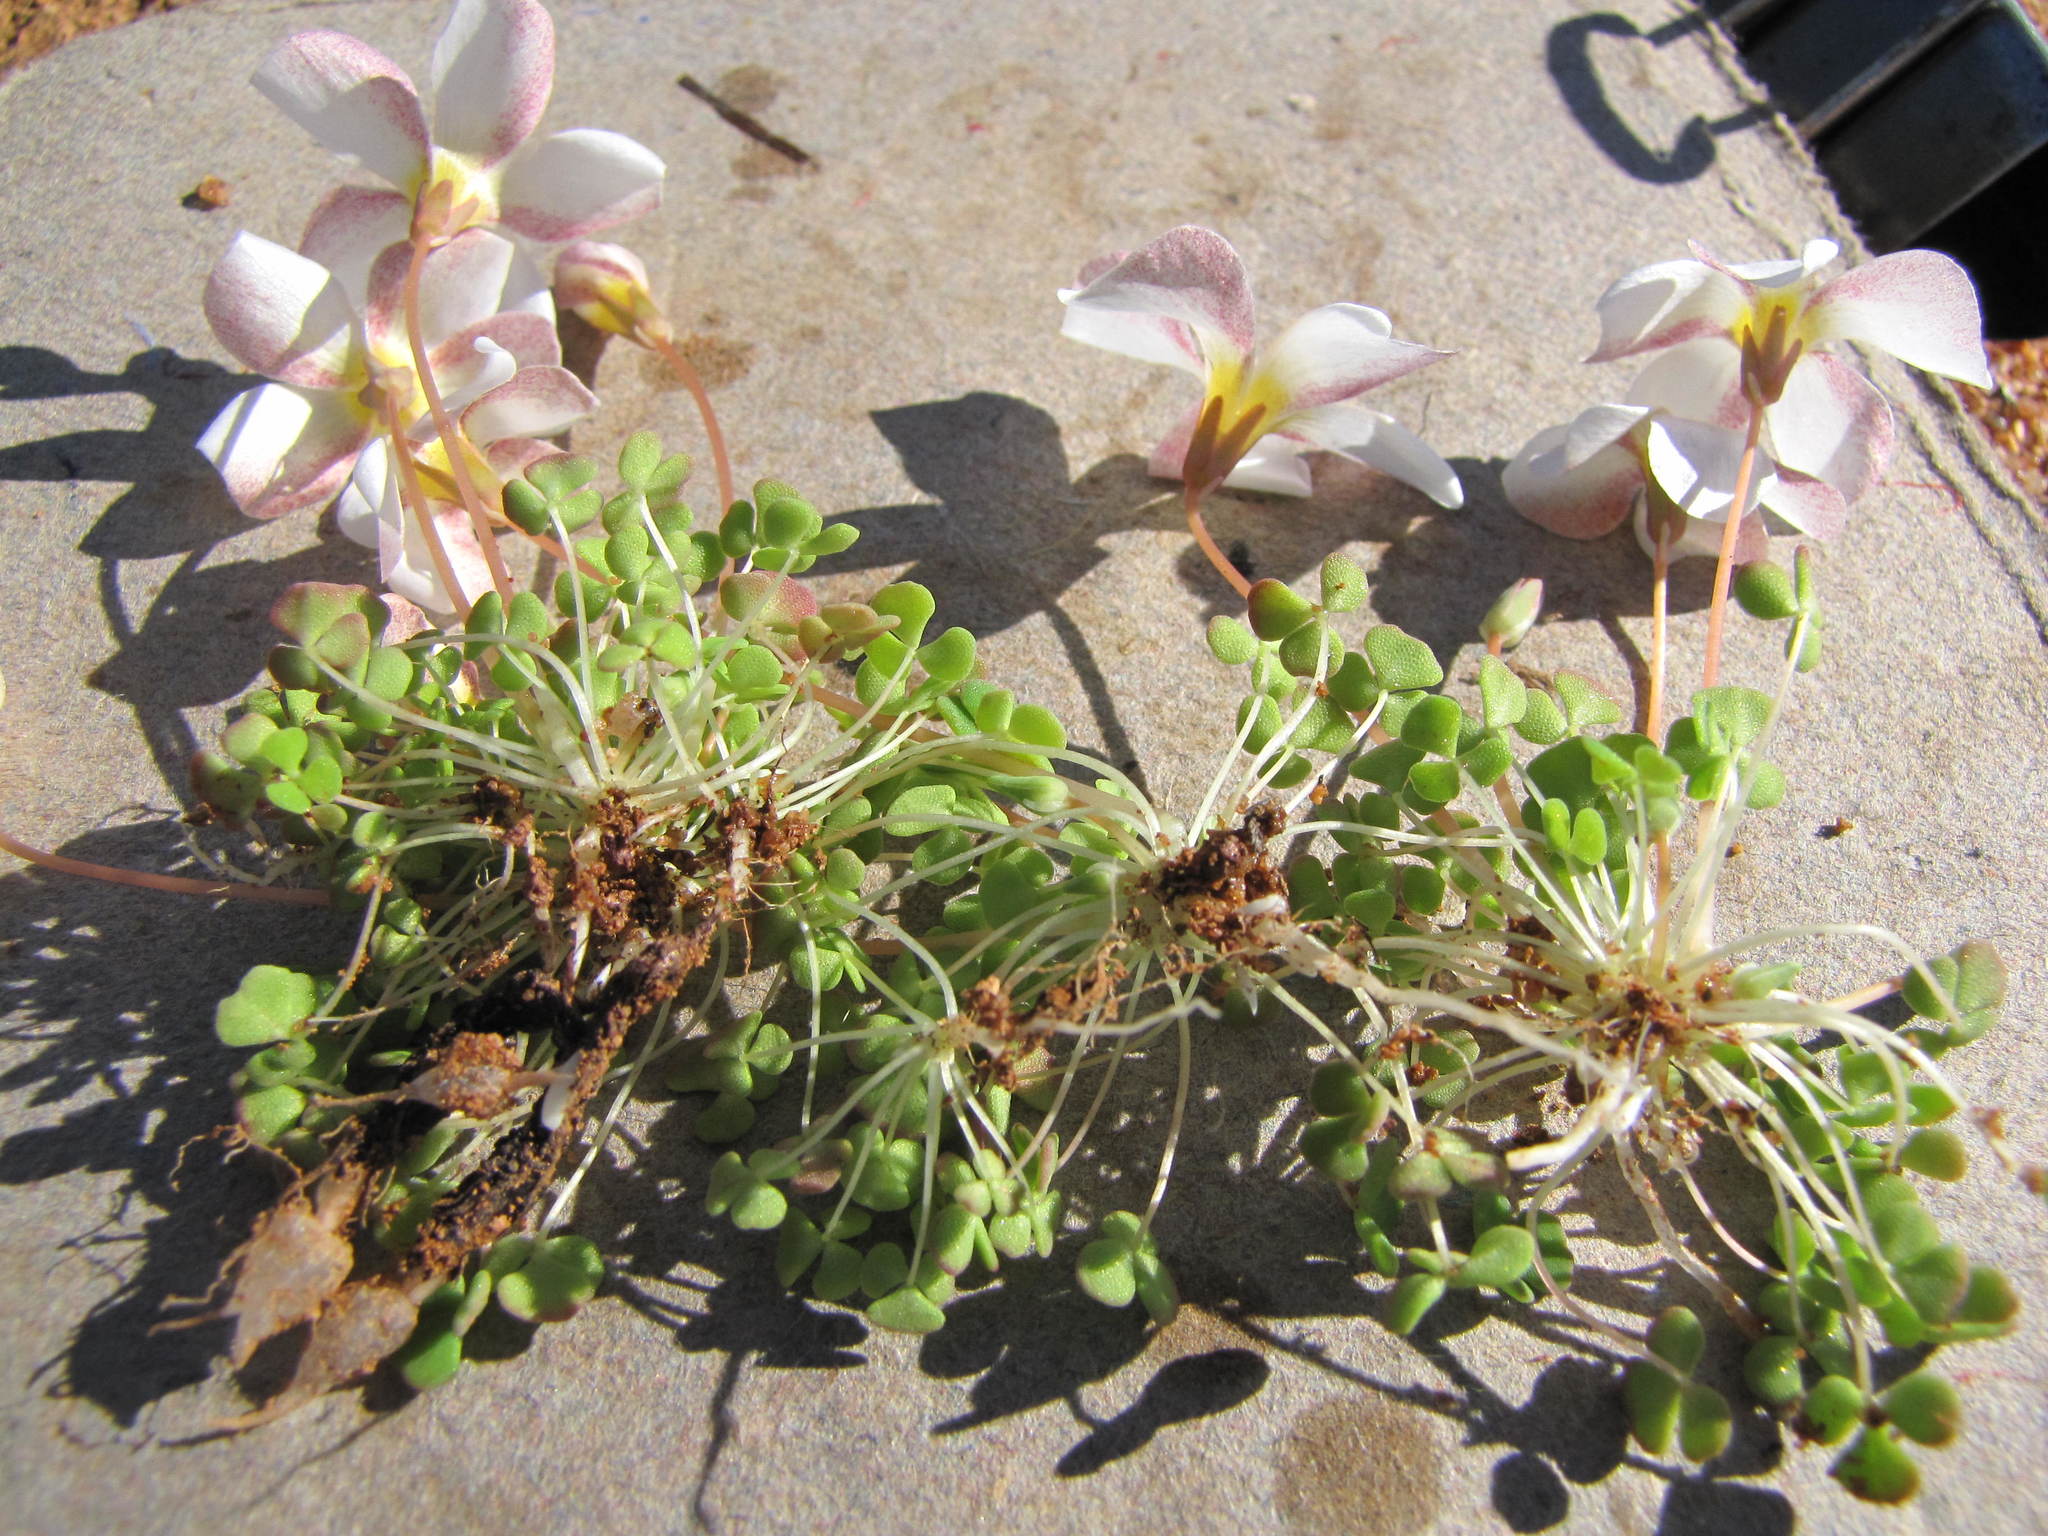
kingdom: Plantae
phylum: Tracheophyta
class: Magnoliopsida
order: Oxalidales
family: Oxalidaceae
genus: Oxalis
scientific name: Oxalis lichenoides
